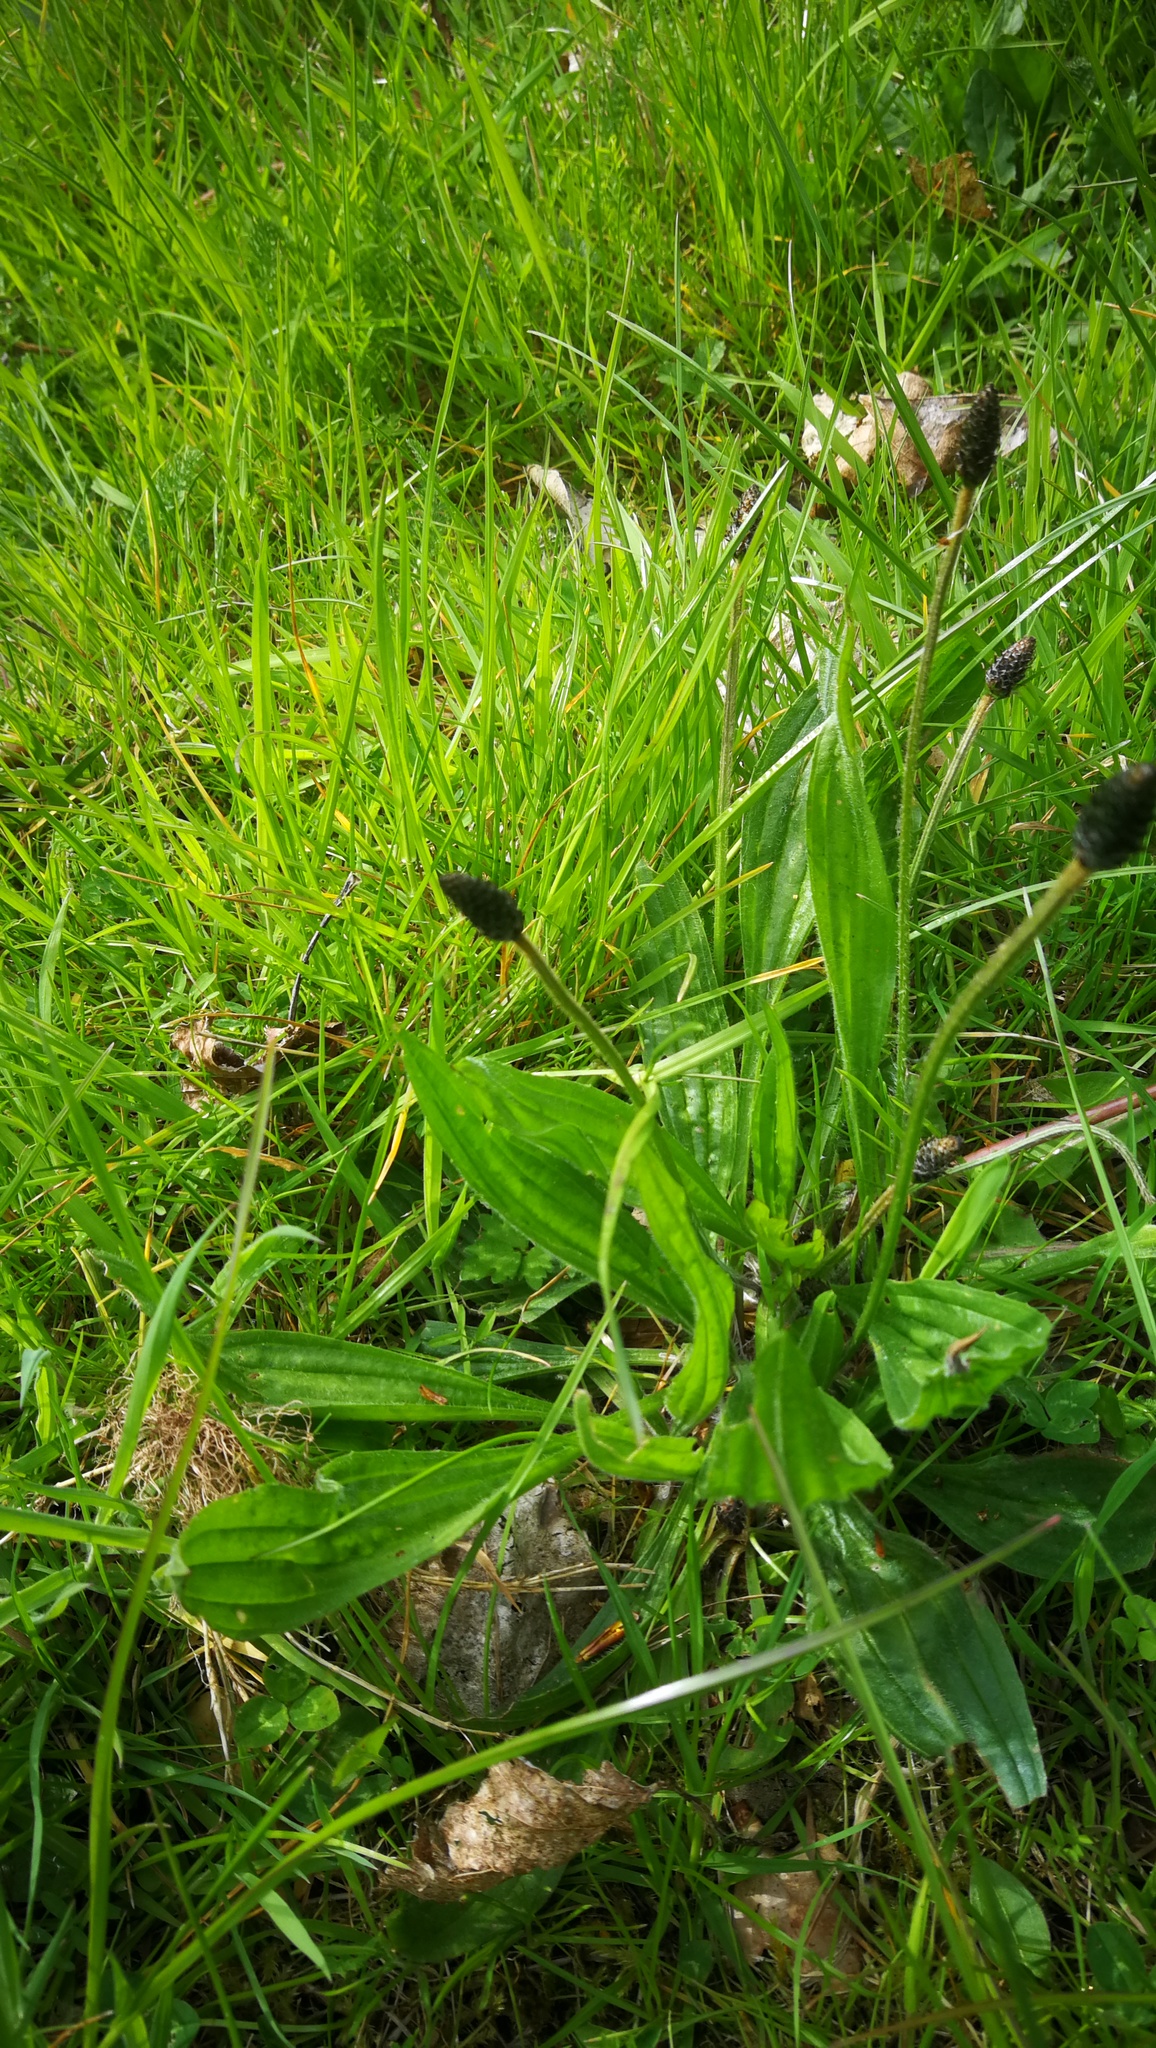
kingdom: Plantae
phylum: Tracheophyta
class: Magnoliopsida
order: Lamiales
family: Plantaginaceae
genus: Plantago
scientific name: Plantago lanceolata
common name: Ribwort plantain
